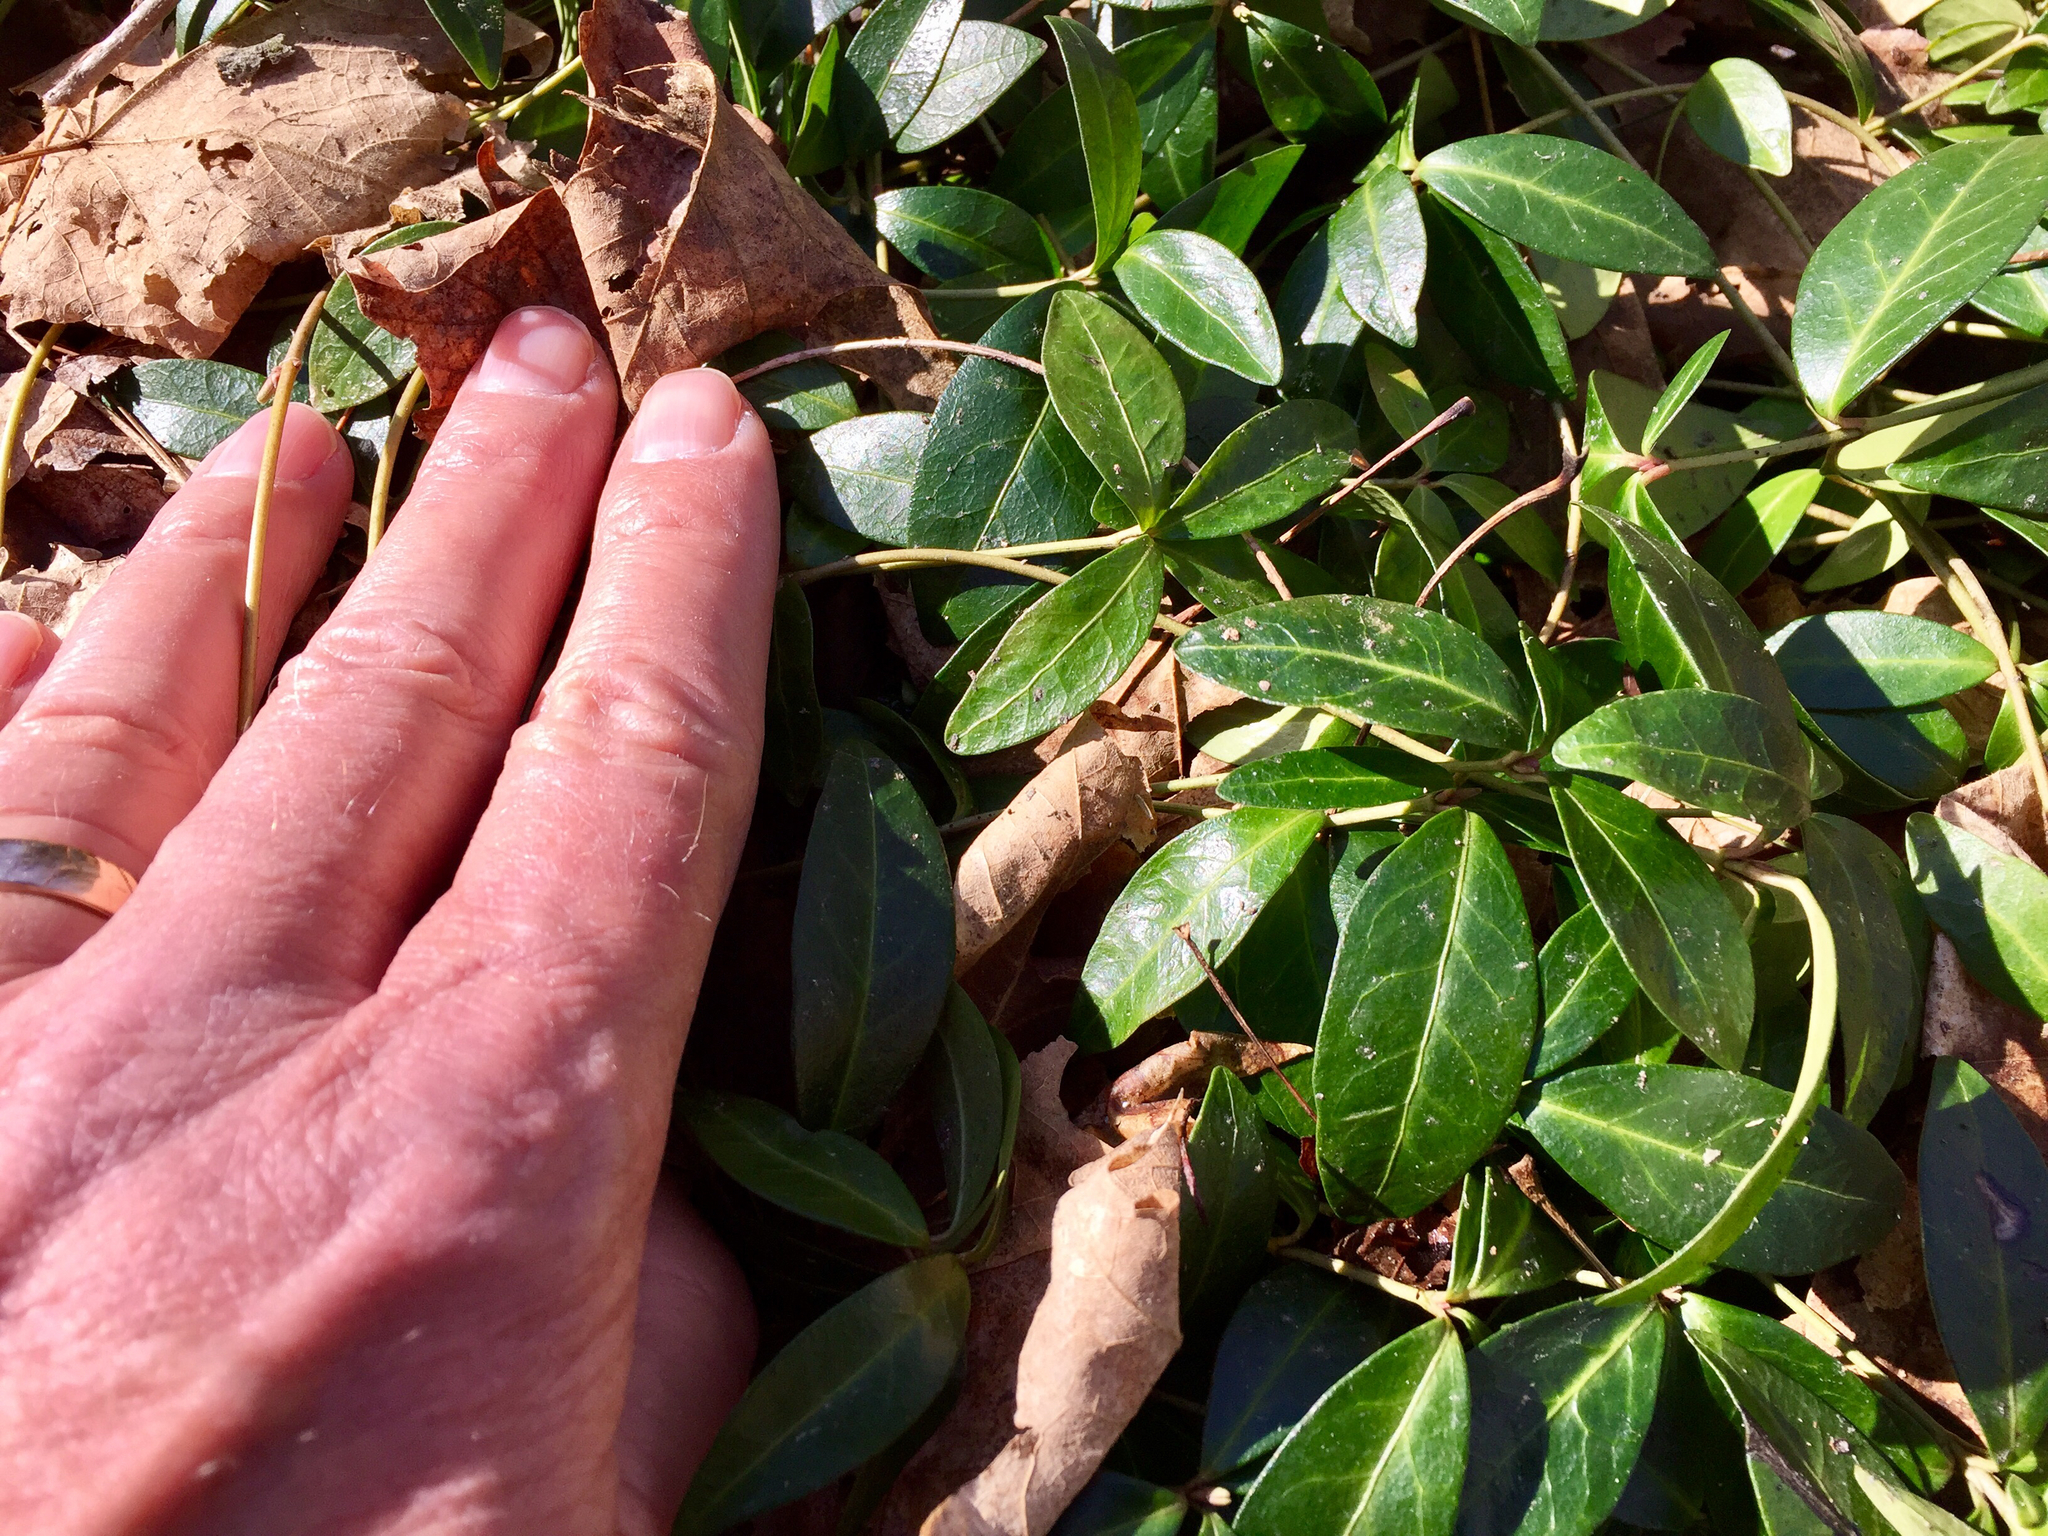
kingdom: Plantae
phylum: Tracheophyta
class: Magnoliopsida
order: Gentianales
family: Apocynaceae
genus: Vinca
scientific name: Vinca minor
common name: Lesser periwinkle
